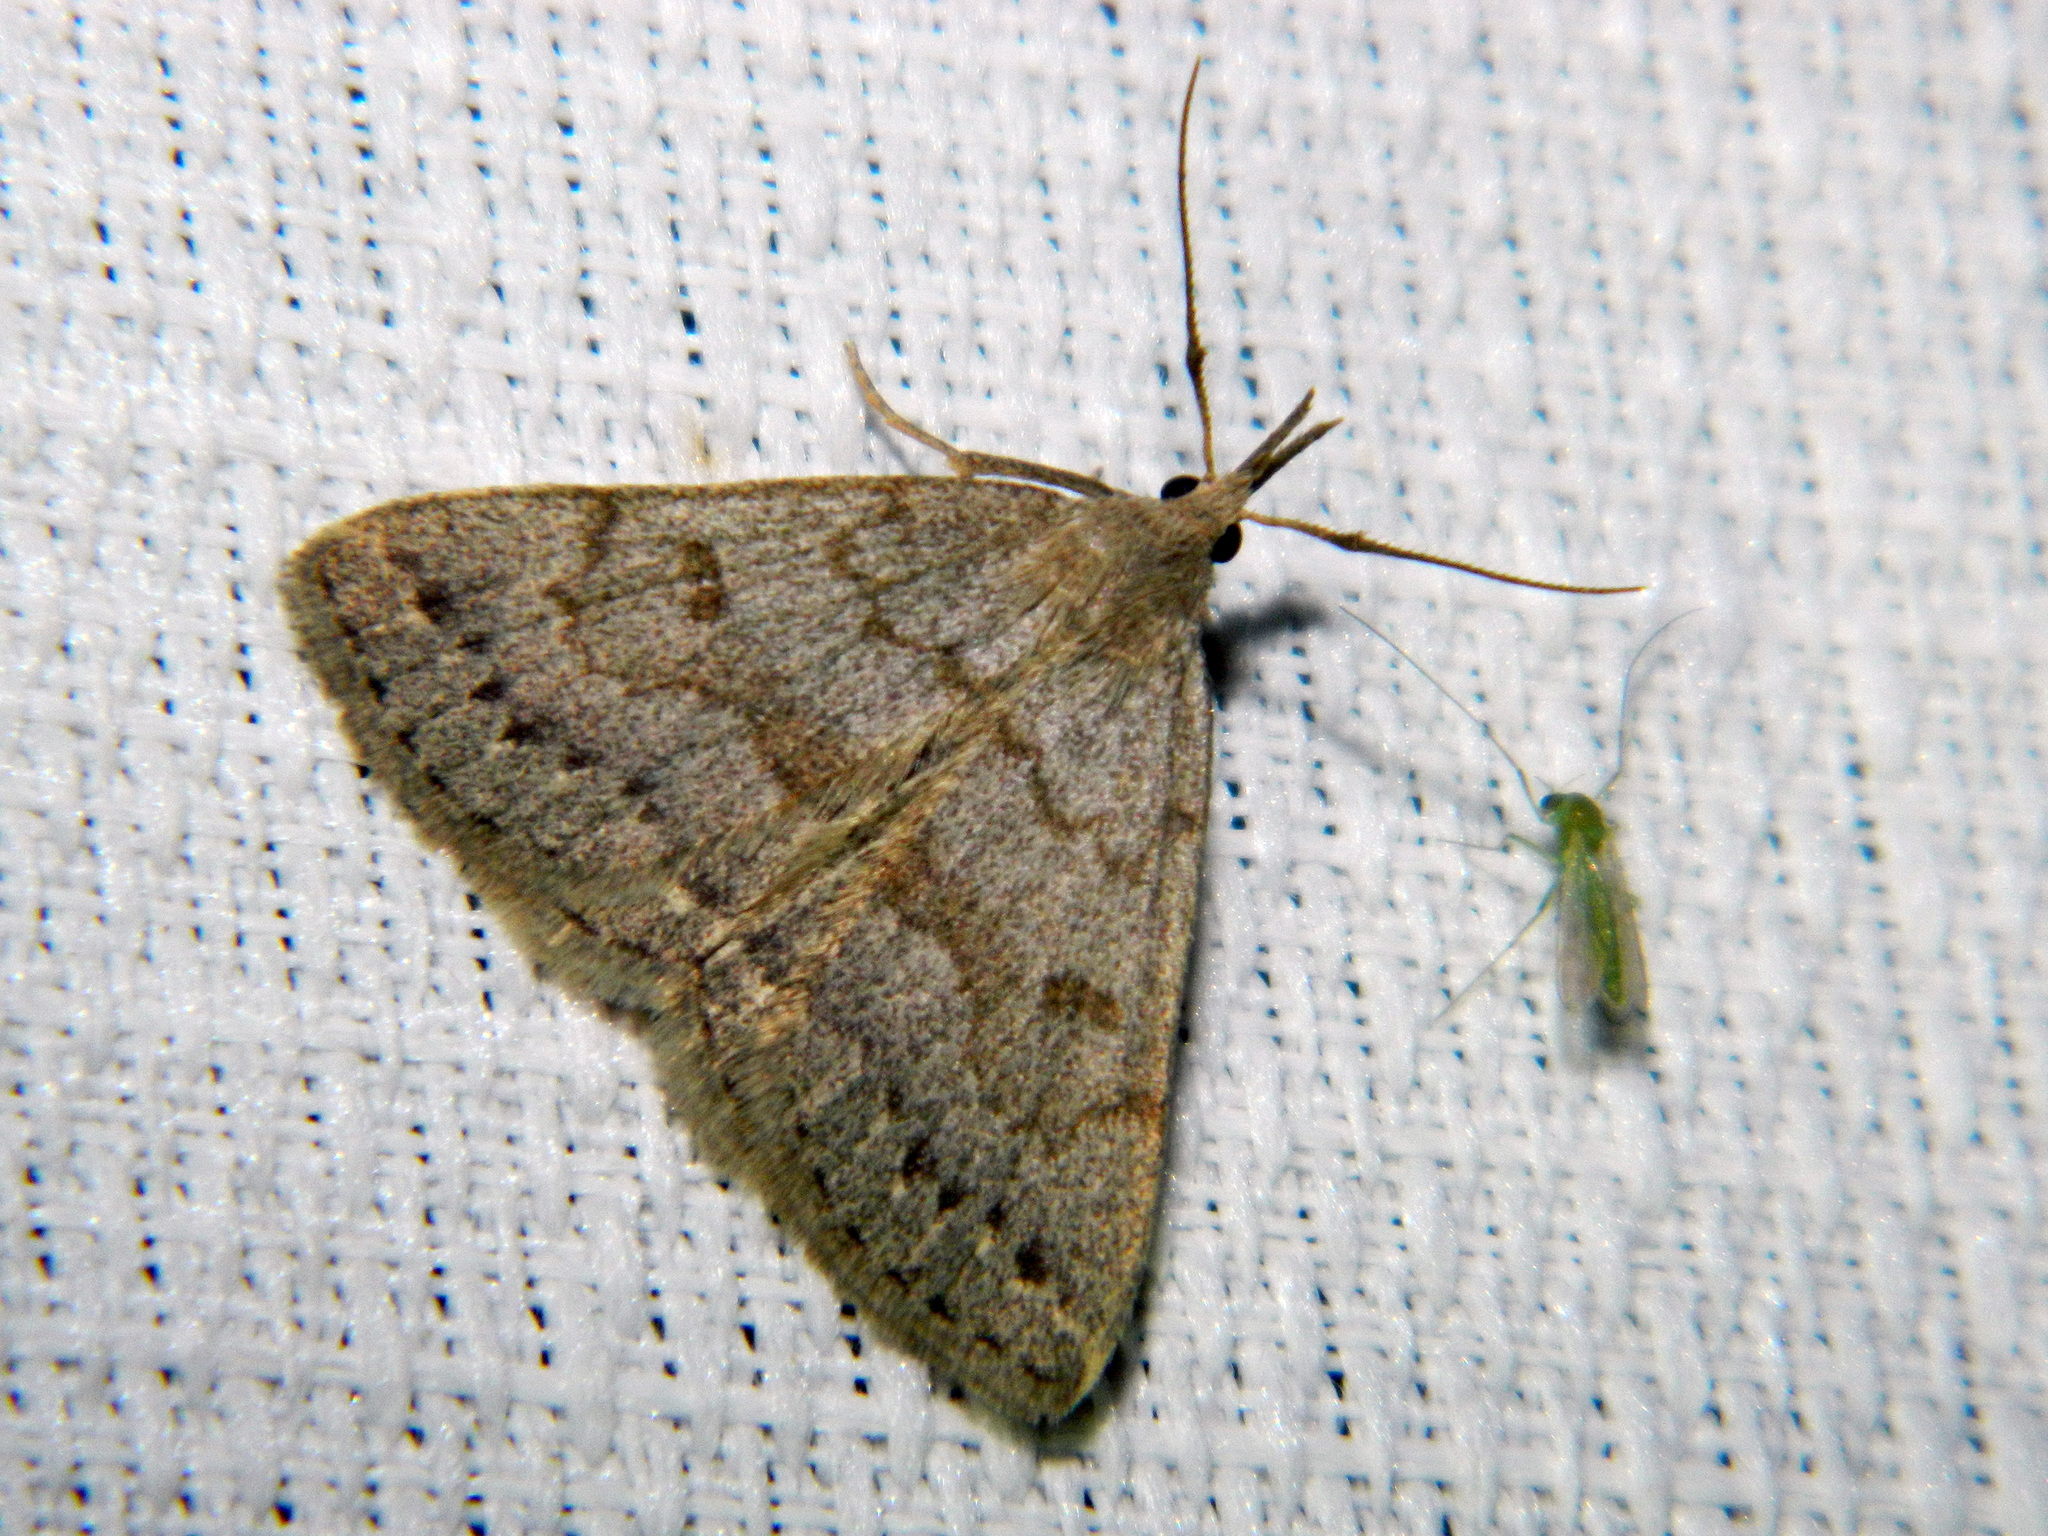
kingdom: Animalia
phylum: Arthropoda
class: Insecta
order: Lepidoptera
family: Erebidae
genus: Macrochilo
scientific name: Macrochilo morbidalis
